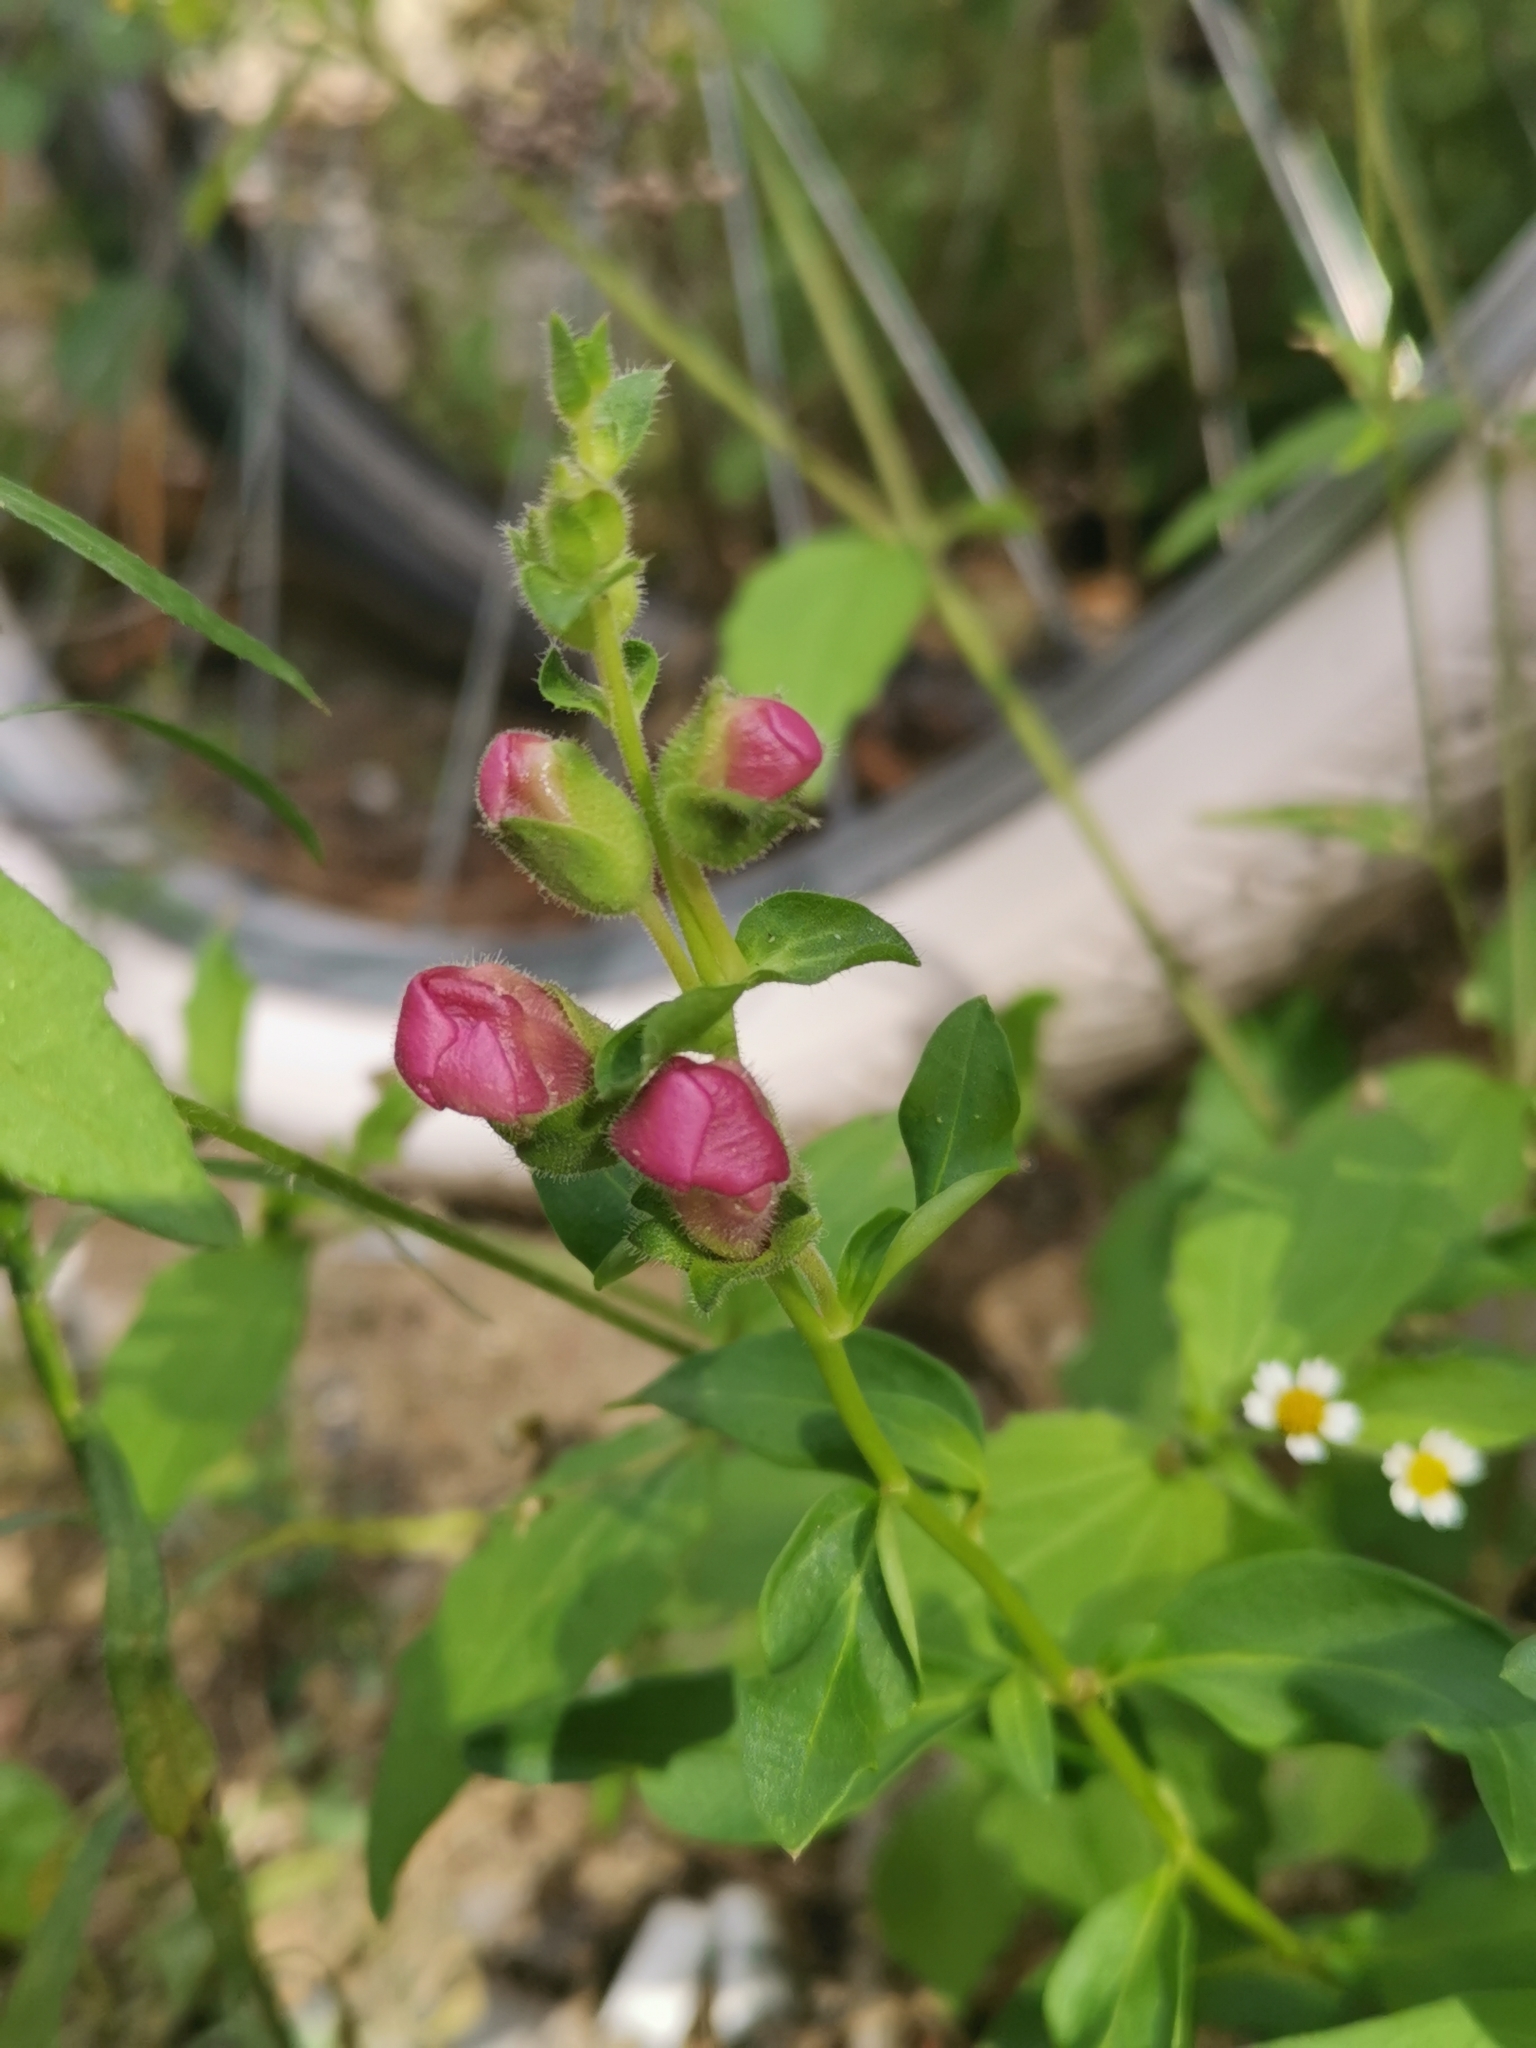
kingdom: Plantae
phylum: Tracheophyta
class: Magnoliopsida
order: Lamiales
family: Plantaginaceae
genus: Antirrhinum
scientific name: Antirrhinum majus
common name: Snapdragon
